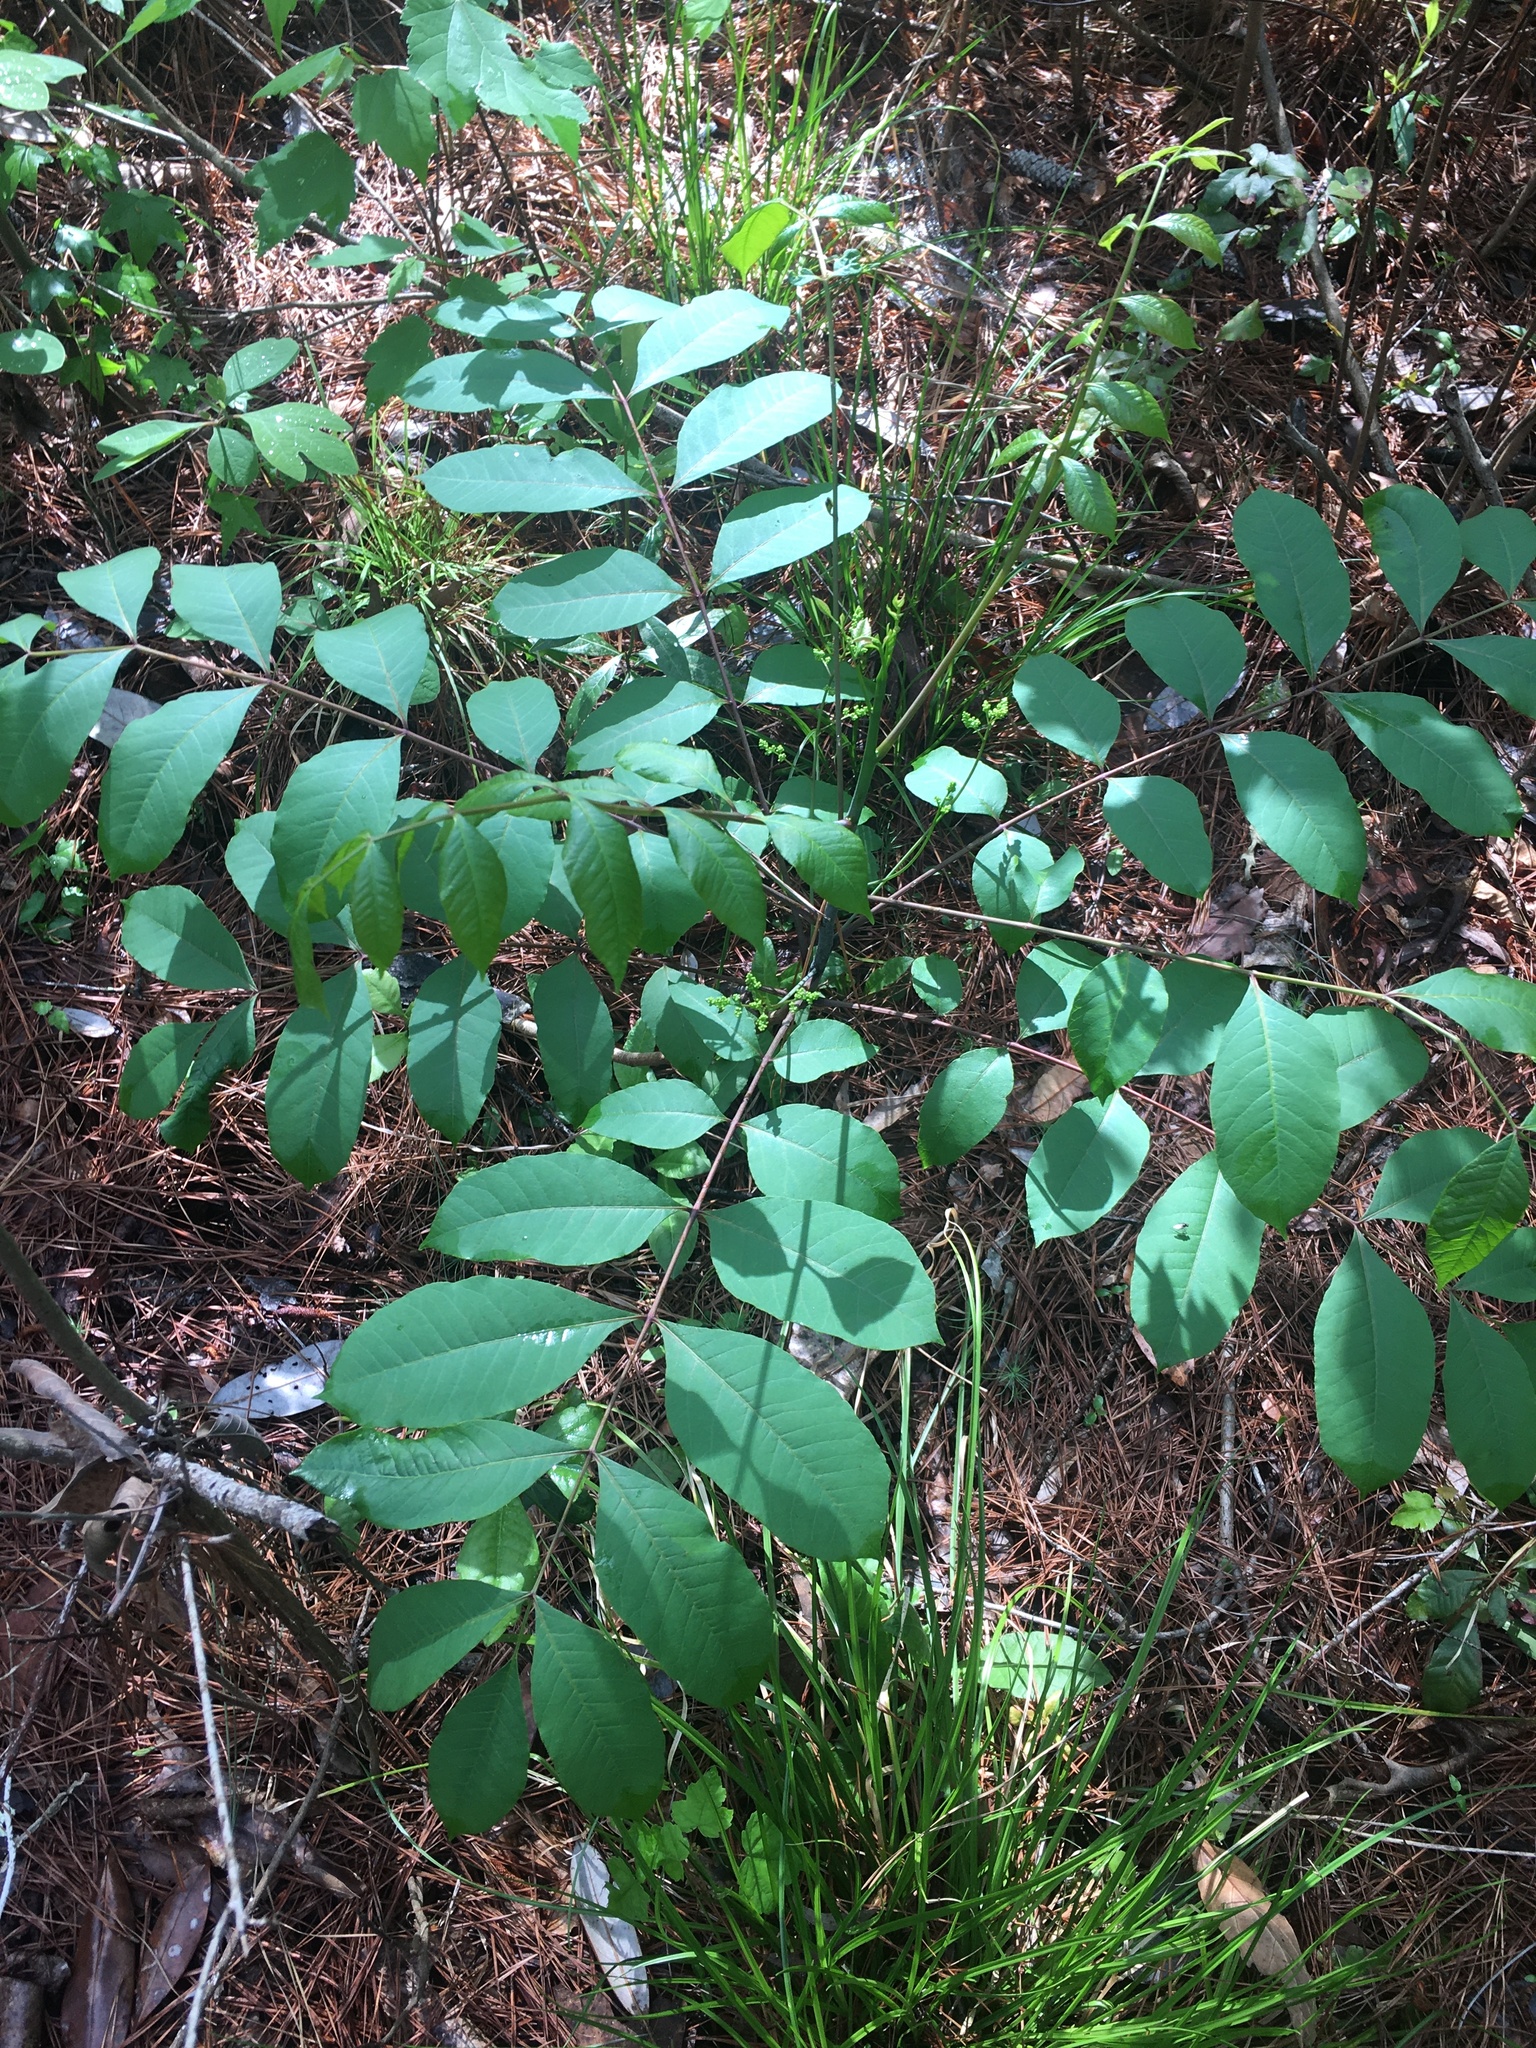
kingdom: Plantae
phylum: Tracheophyta
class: Magnoliopsida
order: Sapindales
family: Anacardiaceae
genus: Toxicodendron
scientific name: Toxicodendron vernix
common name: Poison sumac
